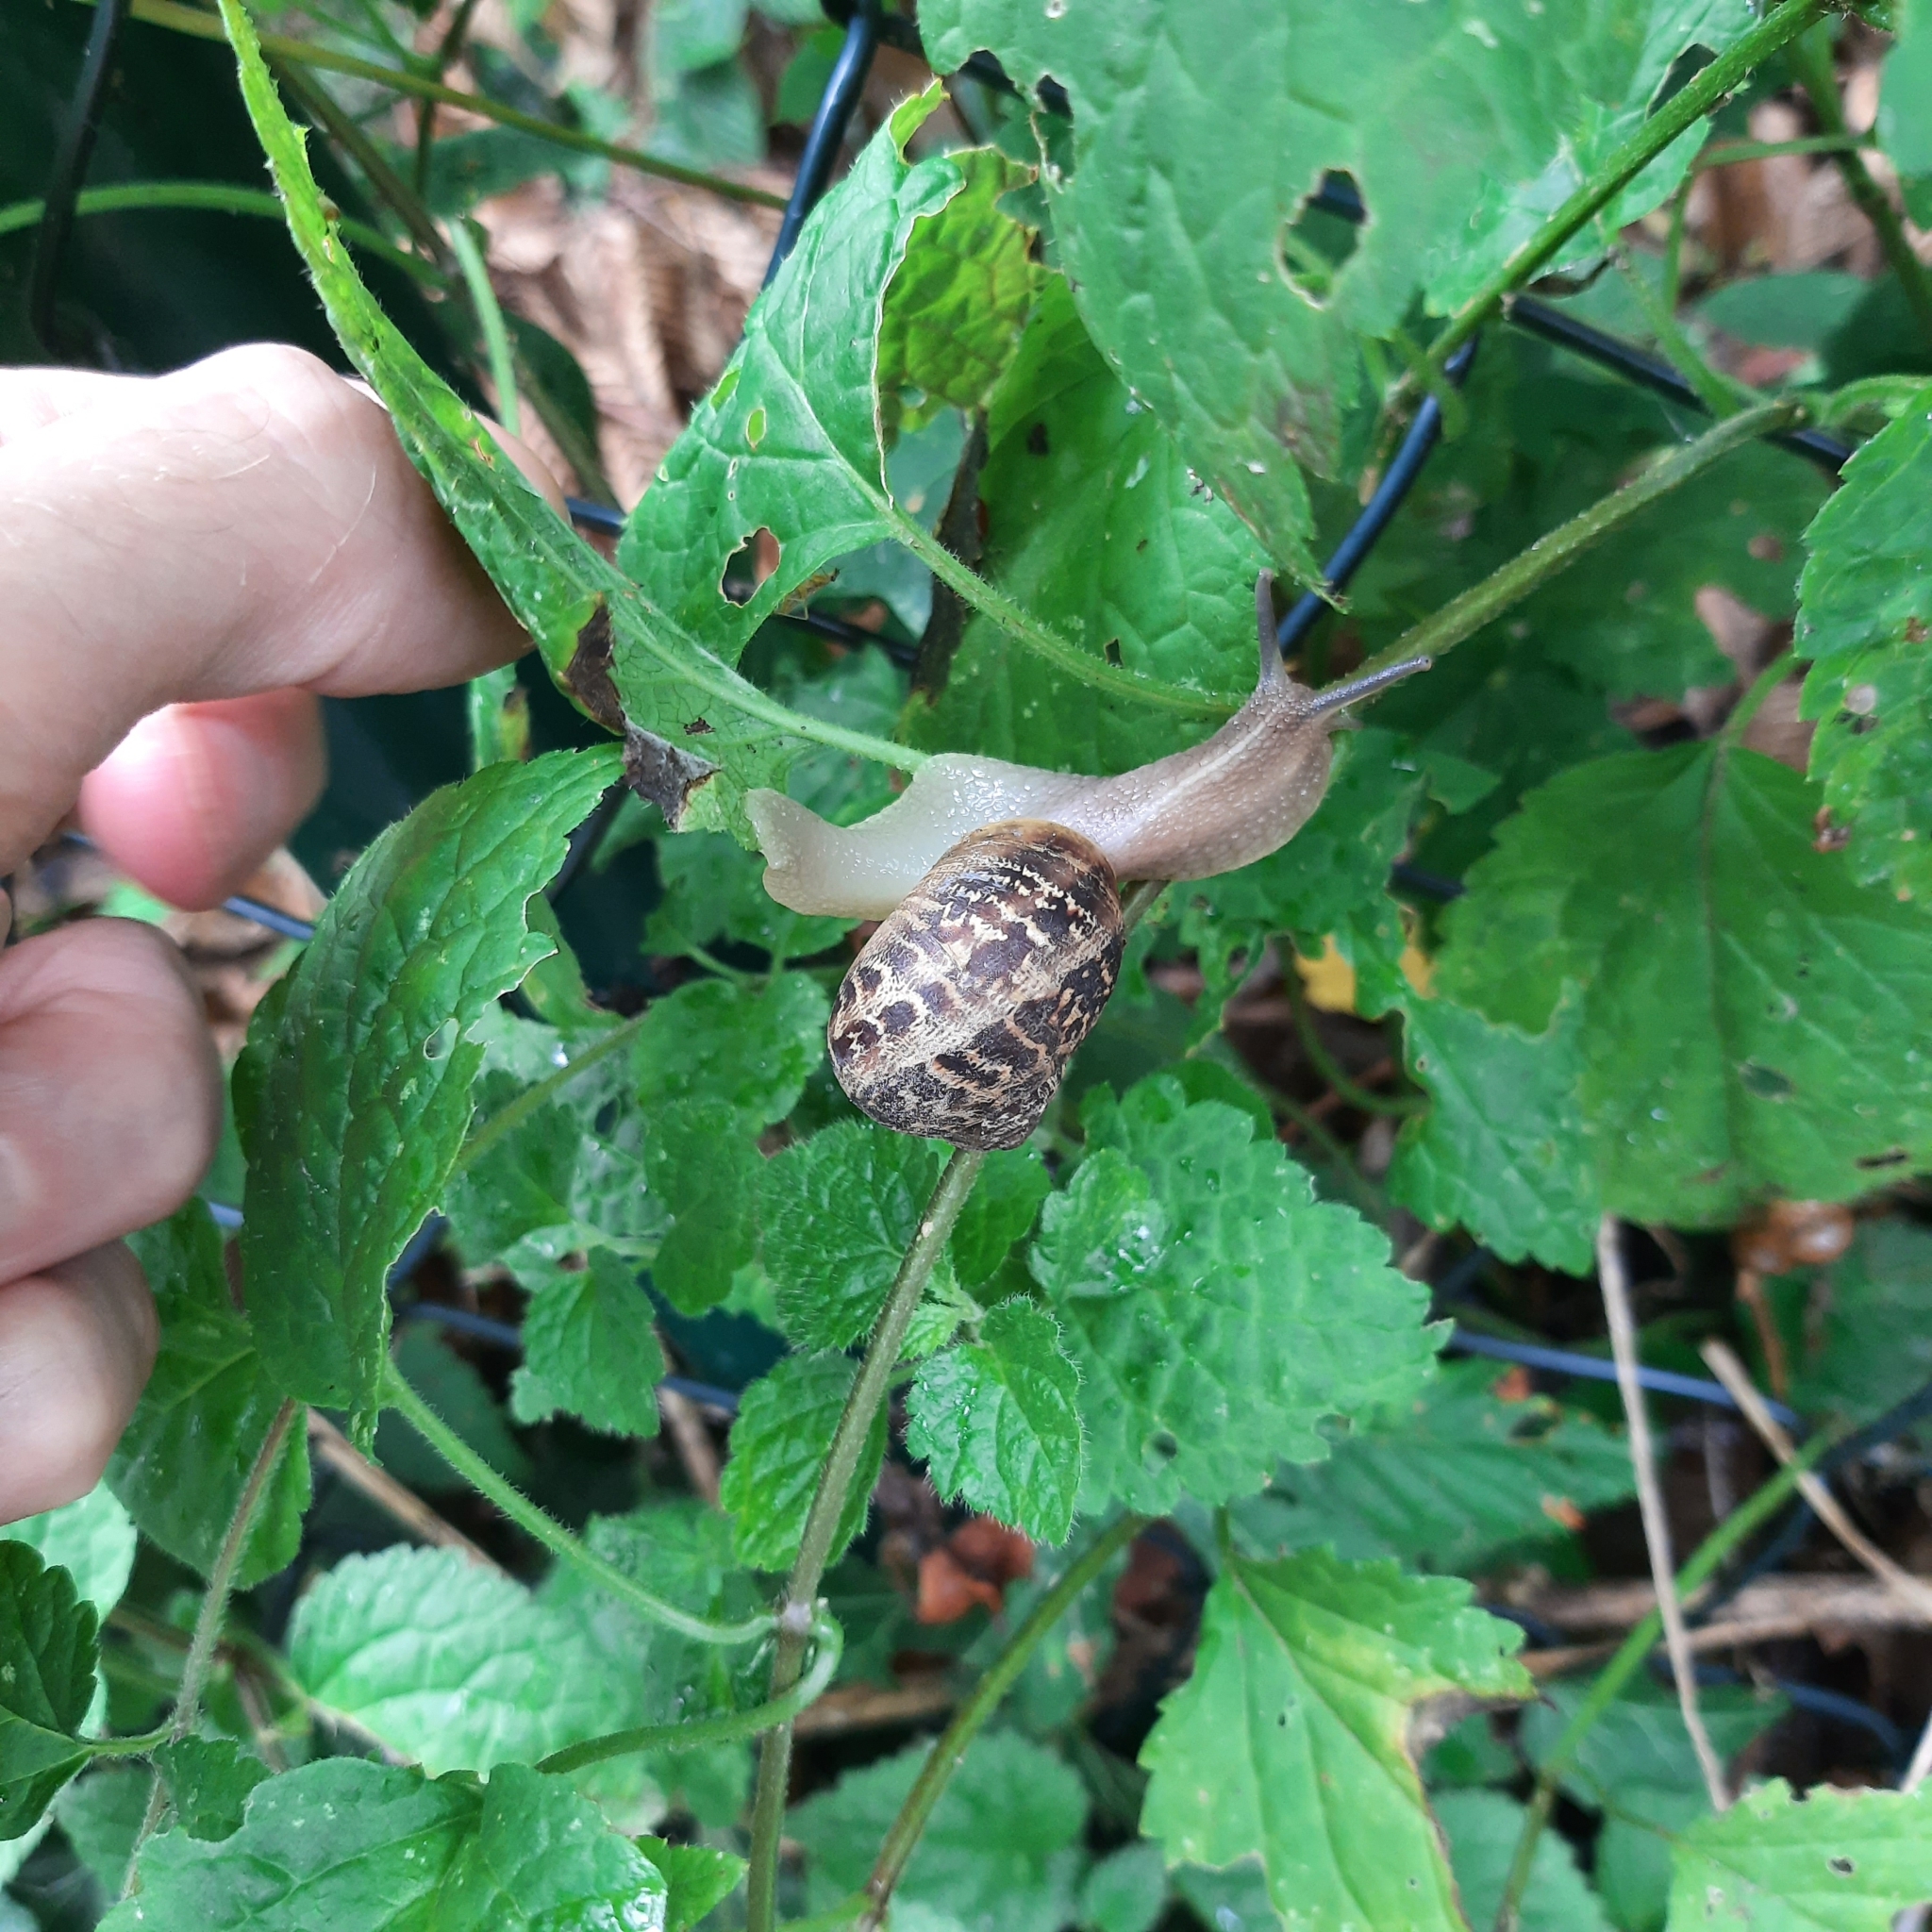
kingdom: Animalia
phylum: Mollusca
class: Gastropoda
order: Stylommatophora
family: Helicidae
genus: Cornu
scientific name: Cornu aspersum
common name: Brown garden snail
